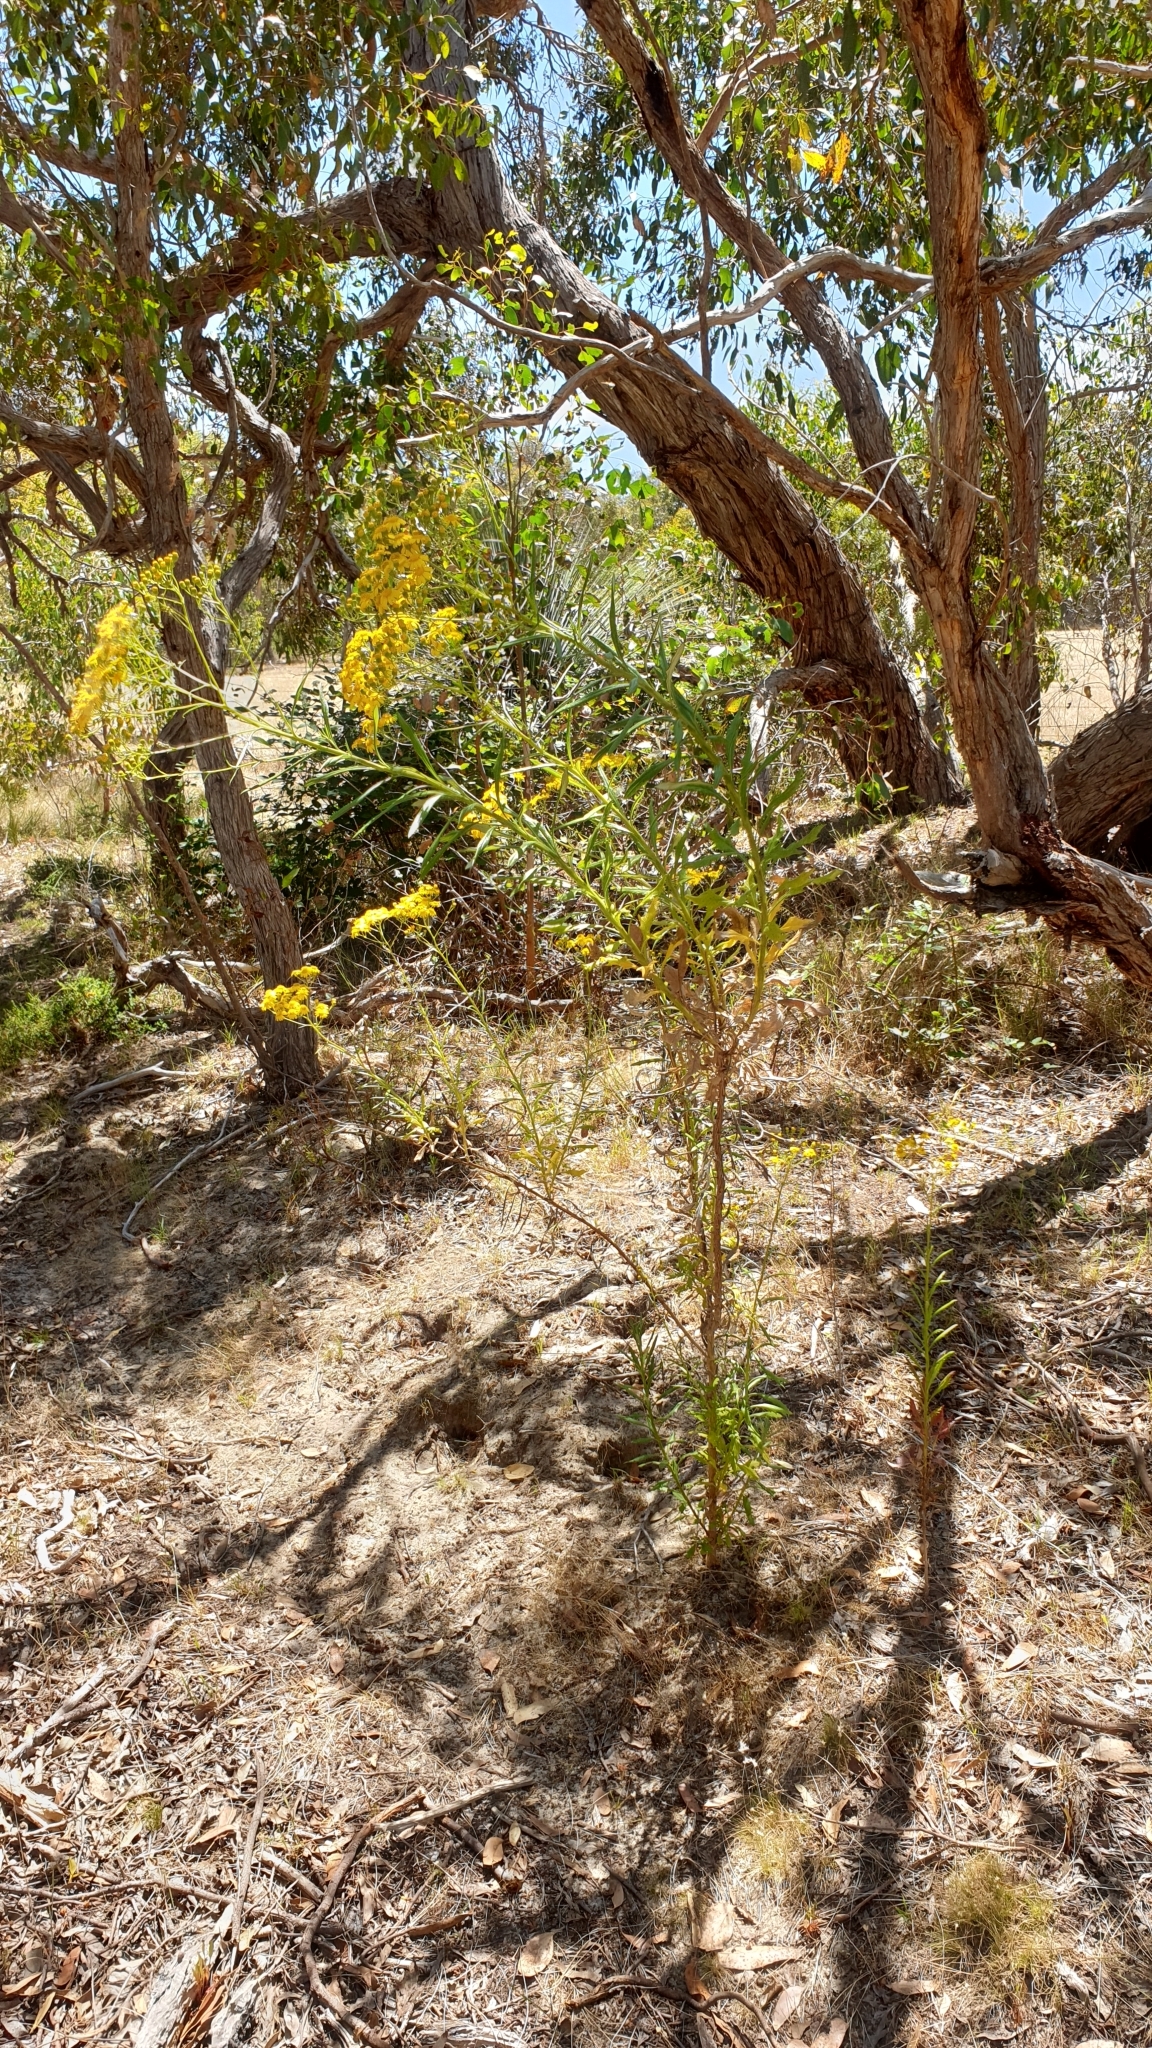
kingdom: Plantae
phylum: Tracheophyta
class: Magnoliopsida
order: Asterales
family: Asteraceae
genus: Senecio
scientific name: Senecio pterophorus
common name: Shoddy ragwort
